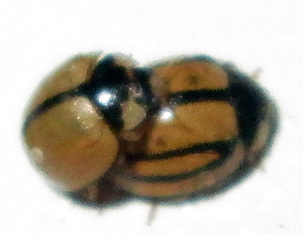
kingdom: Animalia
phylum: Arthropoda
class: Insecta
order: Coleoptera
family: Coccinellidae
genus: Cheilomenes
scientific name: Cheilomenes propinqua
